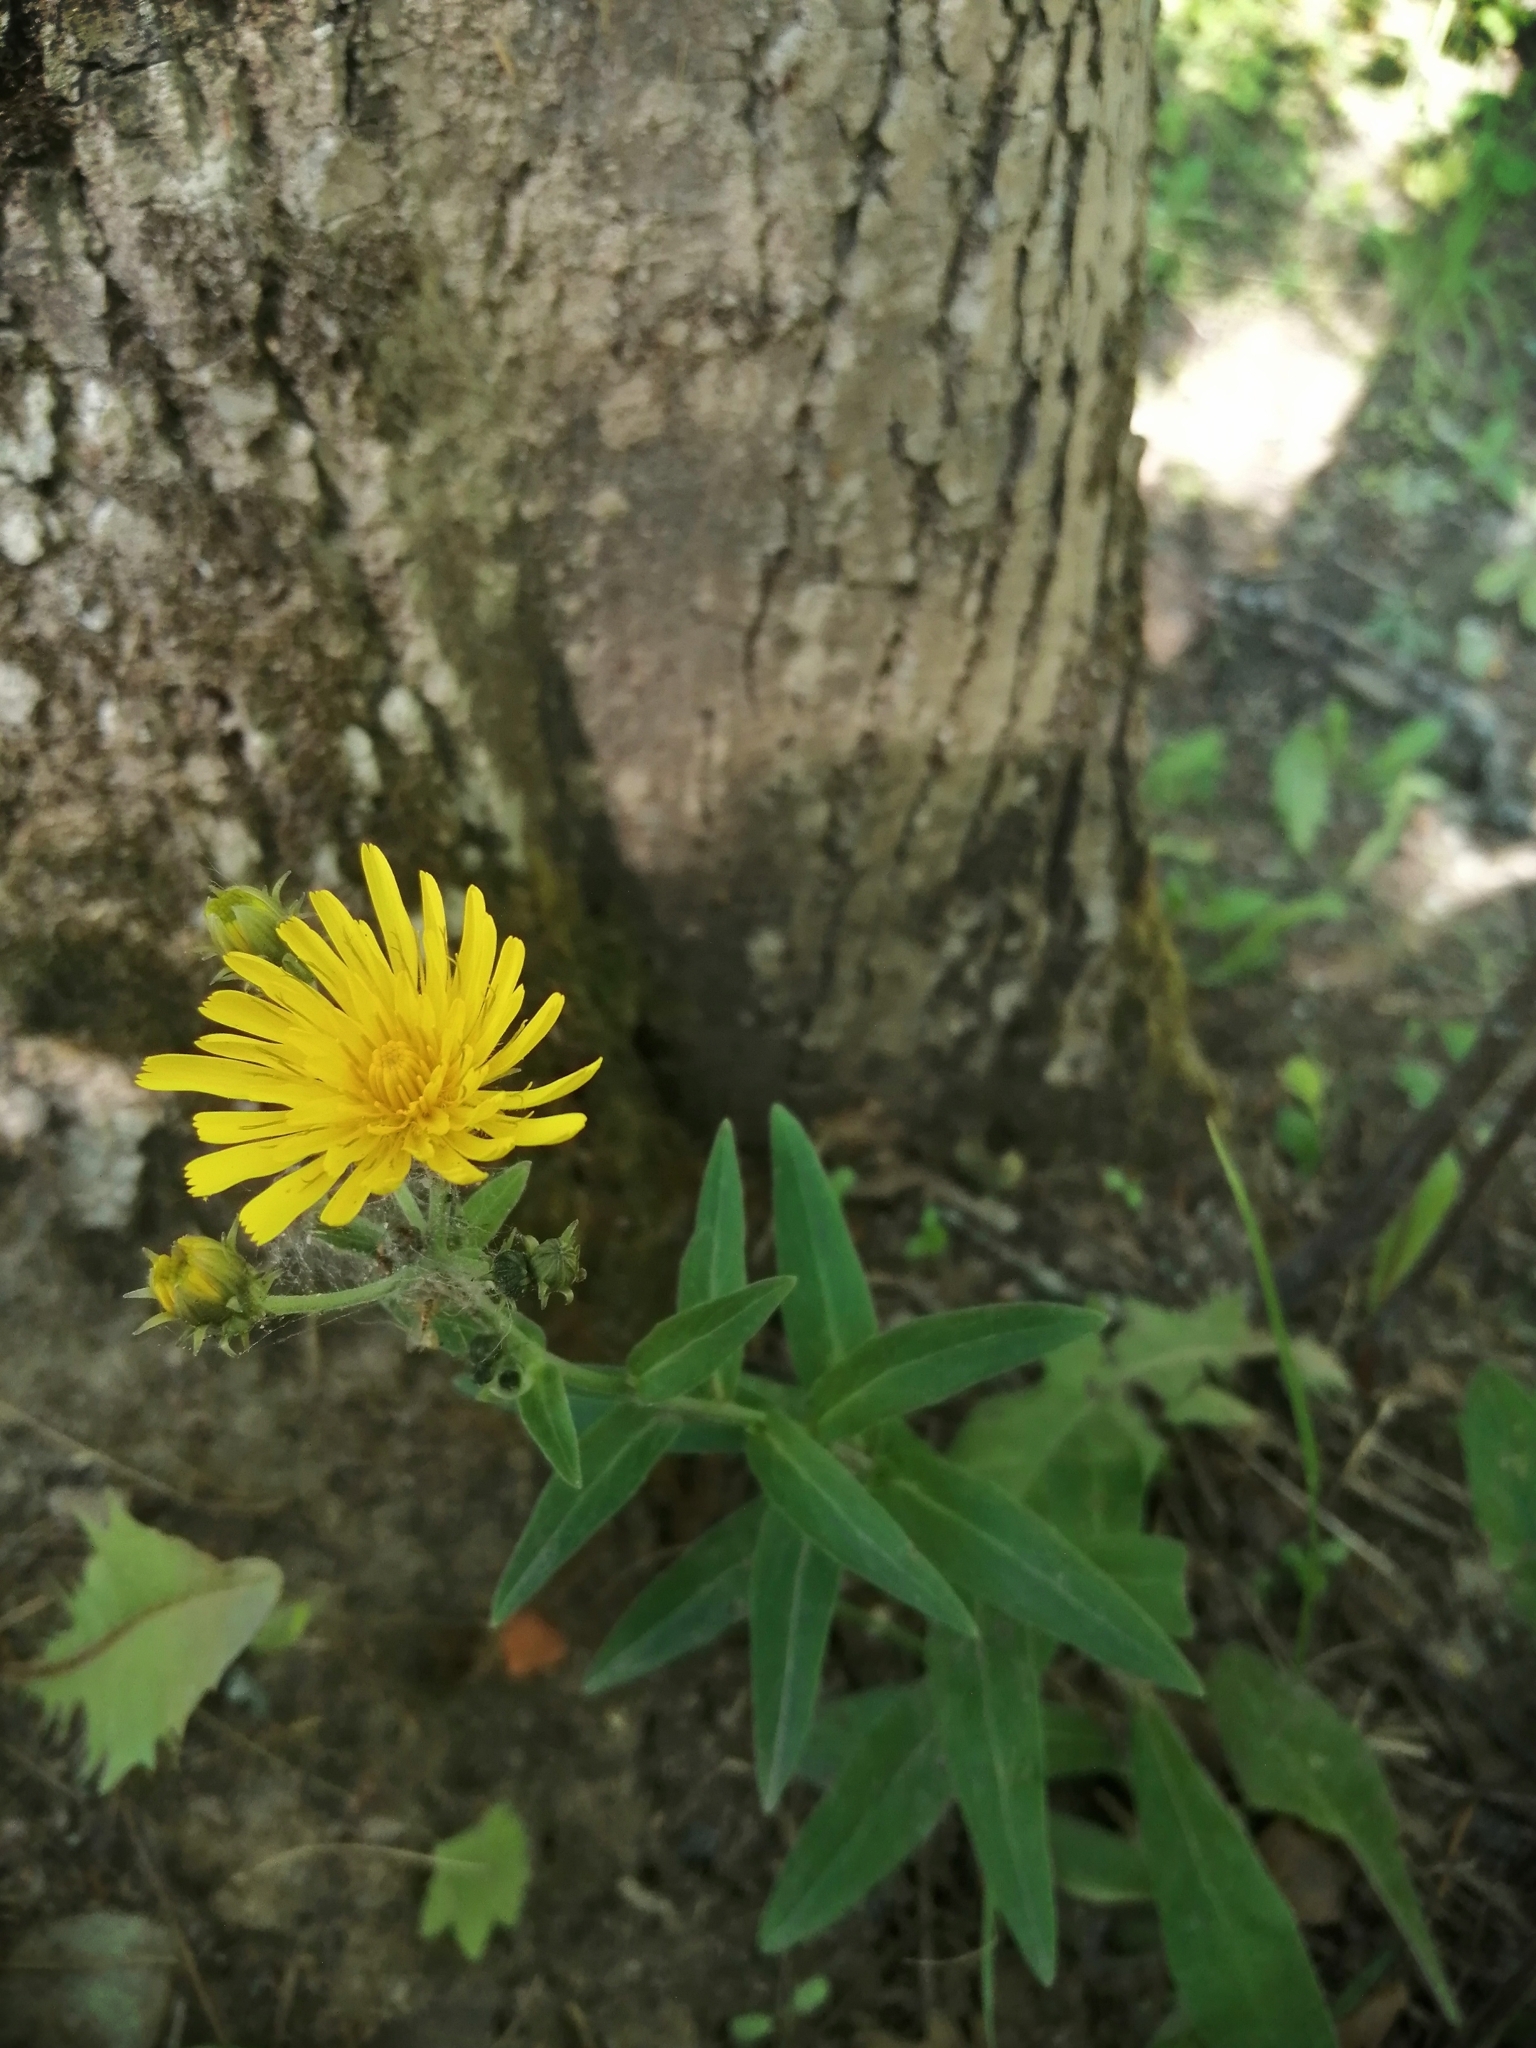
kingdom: Plantae
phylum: Tracheophyta
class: Magnoliopsida
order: Asterales
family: Asteraceae
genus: Hieracium
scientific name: Hieracium umbellatum
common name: Northern hawkweed
